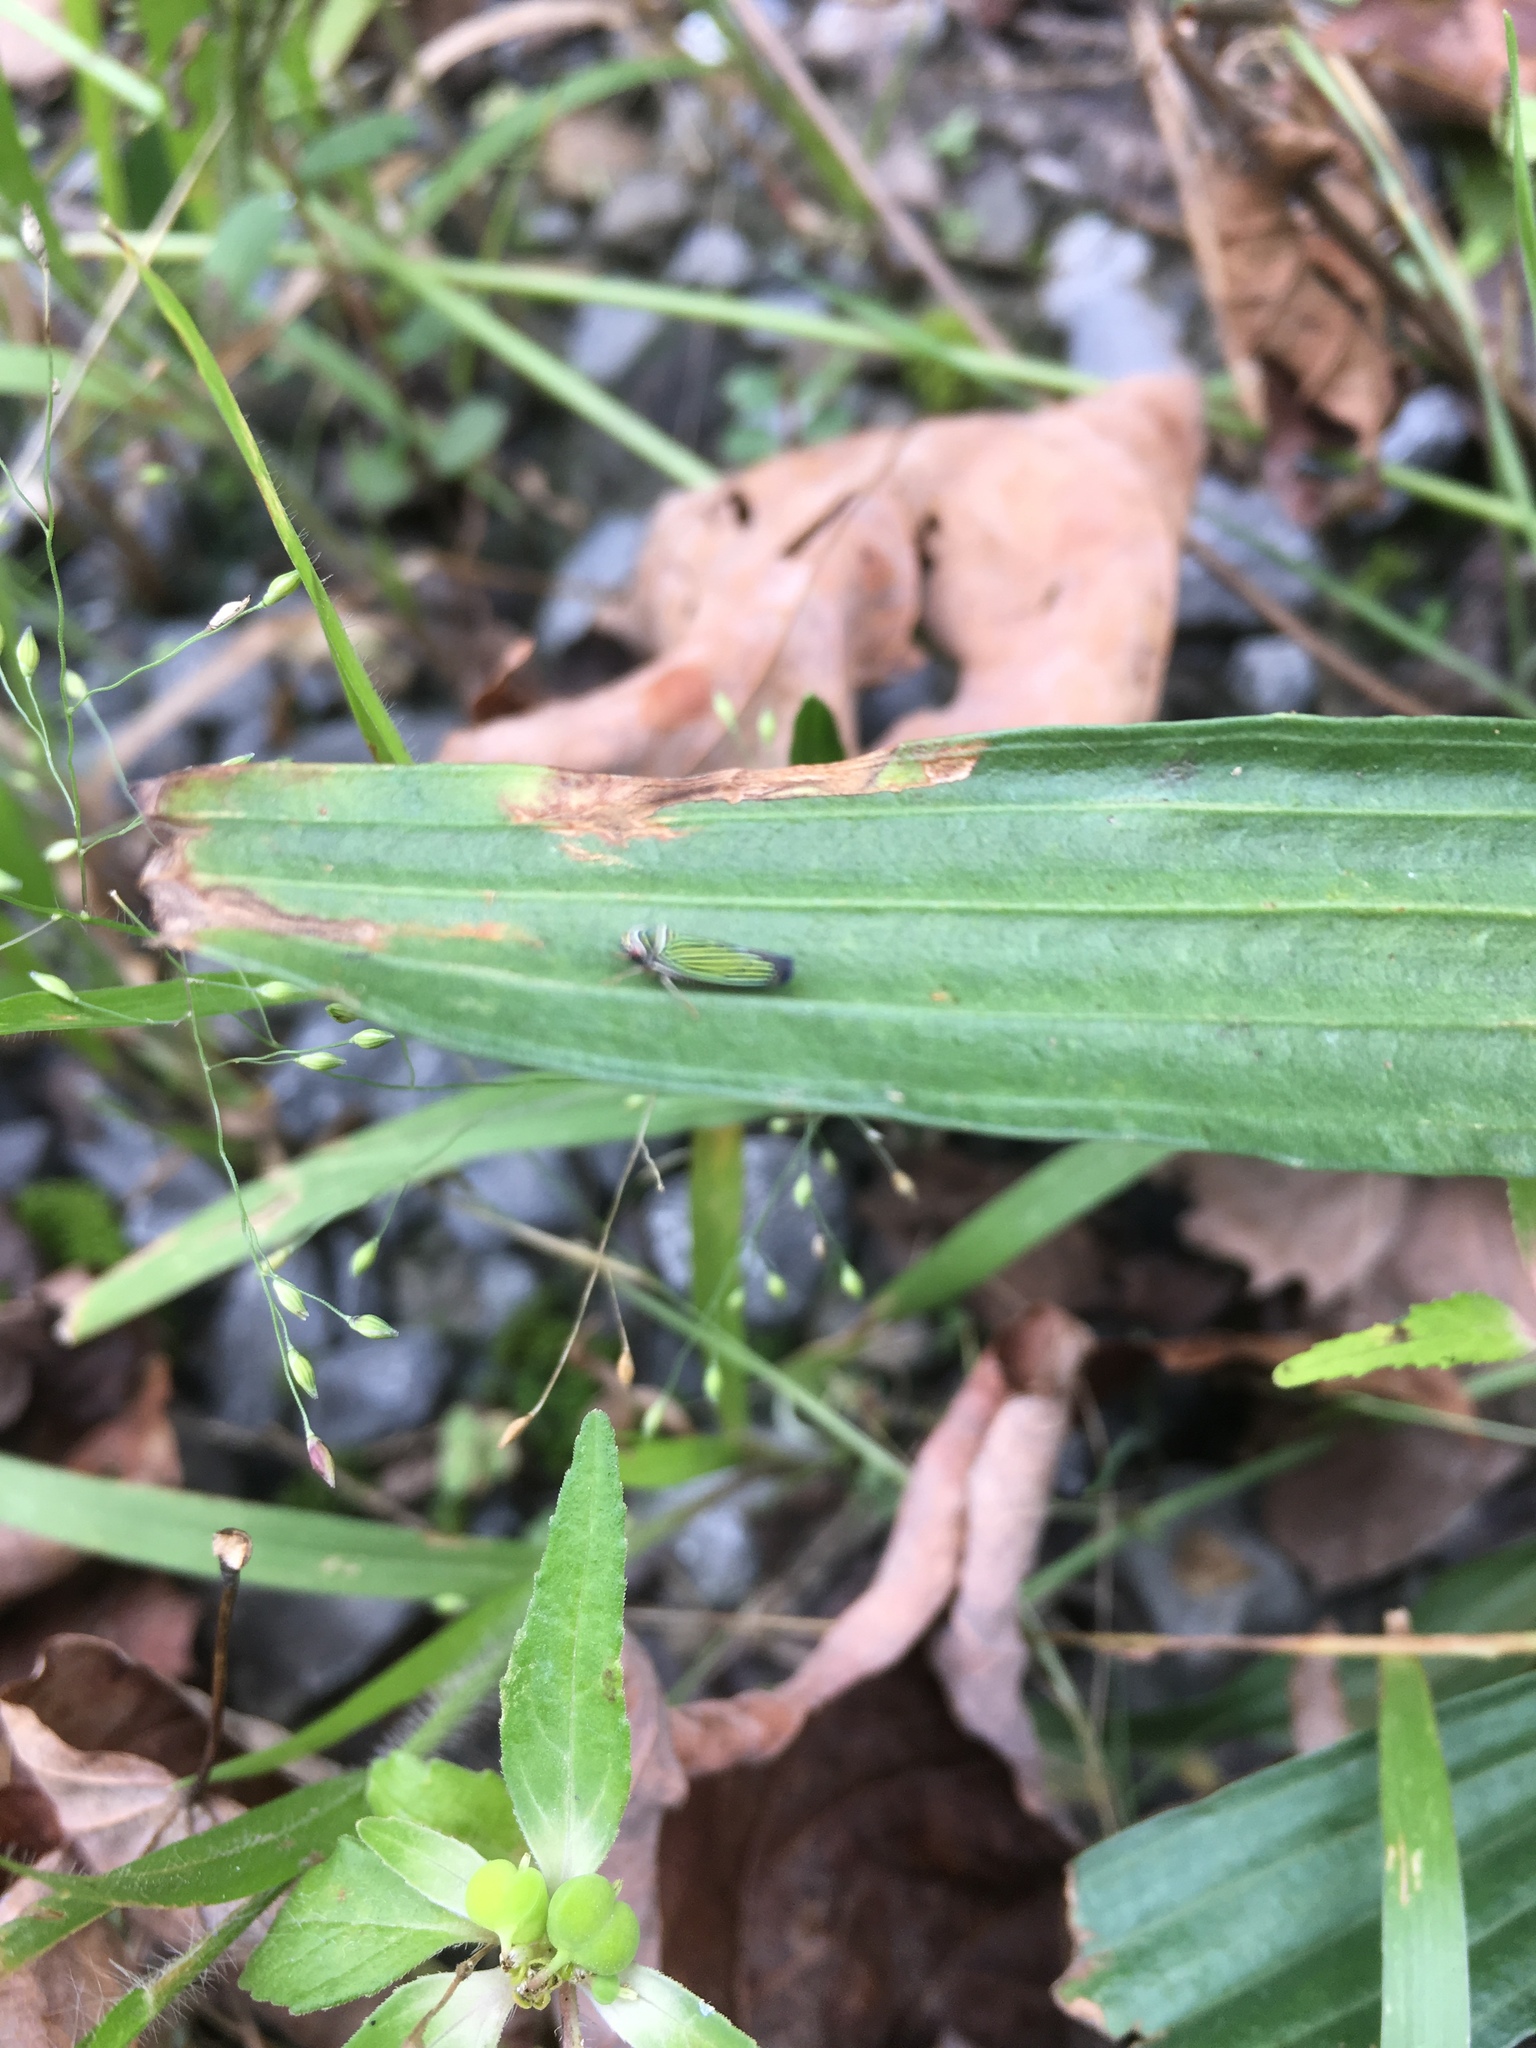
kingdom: Animalia
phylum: Arthropoda
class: Insecta
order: Hemiptera
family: Cicadellidae
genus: Tylozygus
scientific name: Tylozygus bifidus
